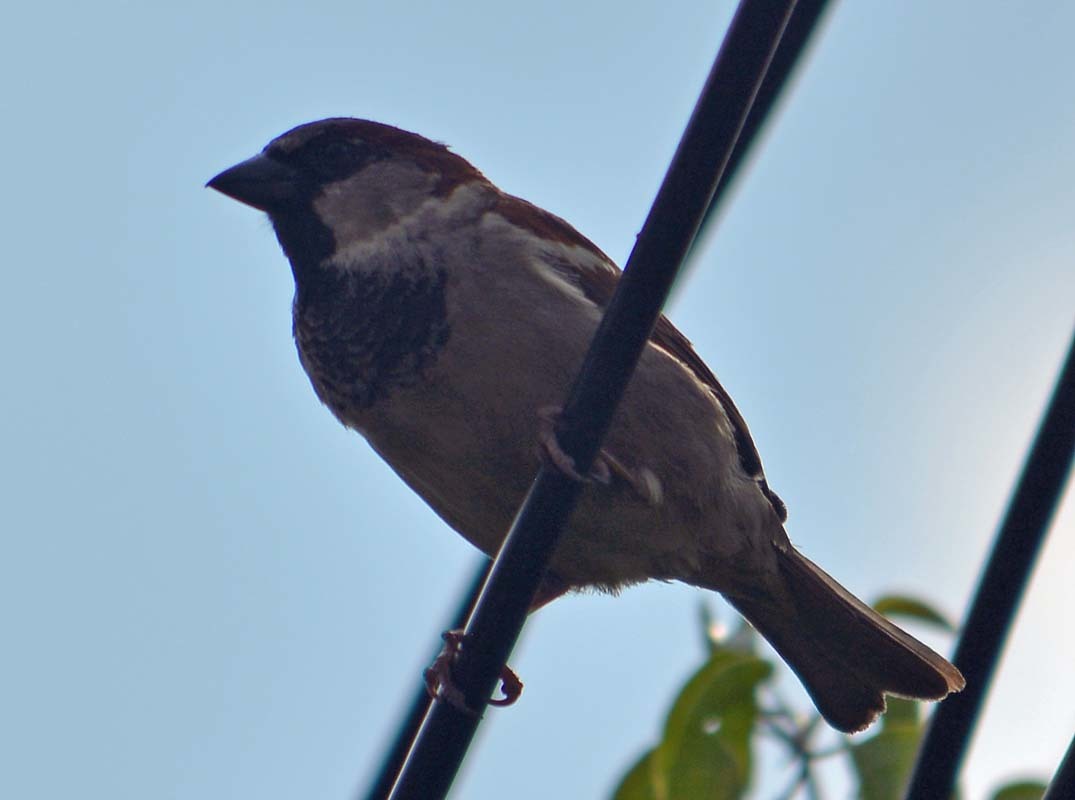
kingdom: Animalia
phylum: Chordata
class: Aves
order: Passeriformes
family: Passeridae
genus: Passer
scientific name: Passer domesticus
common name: House sparrow
